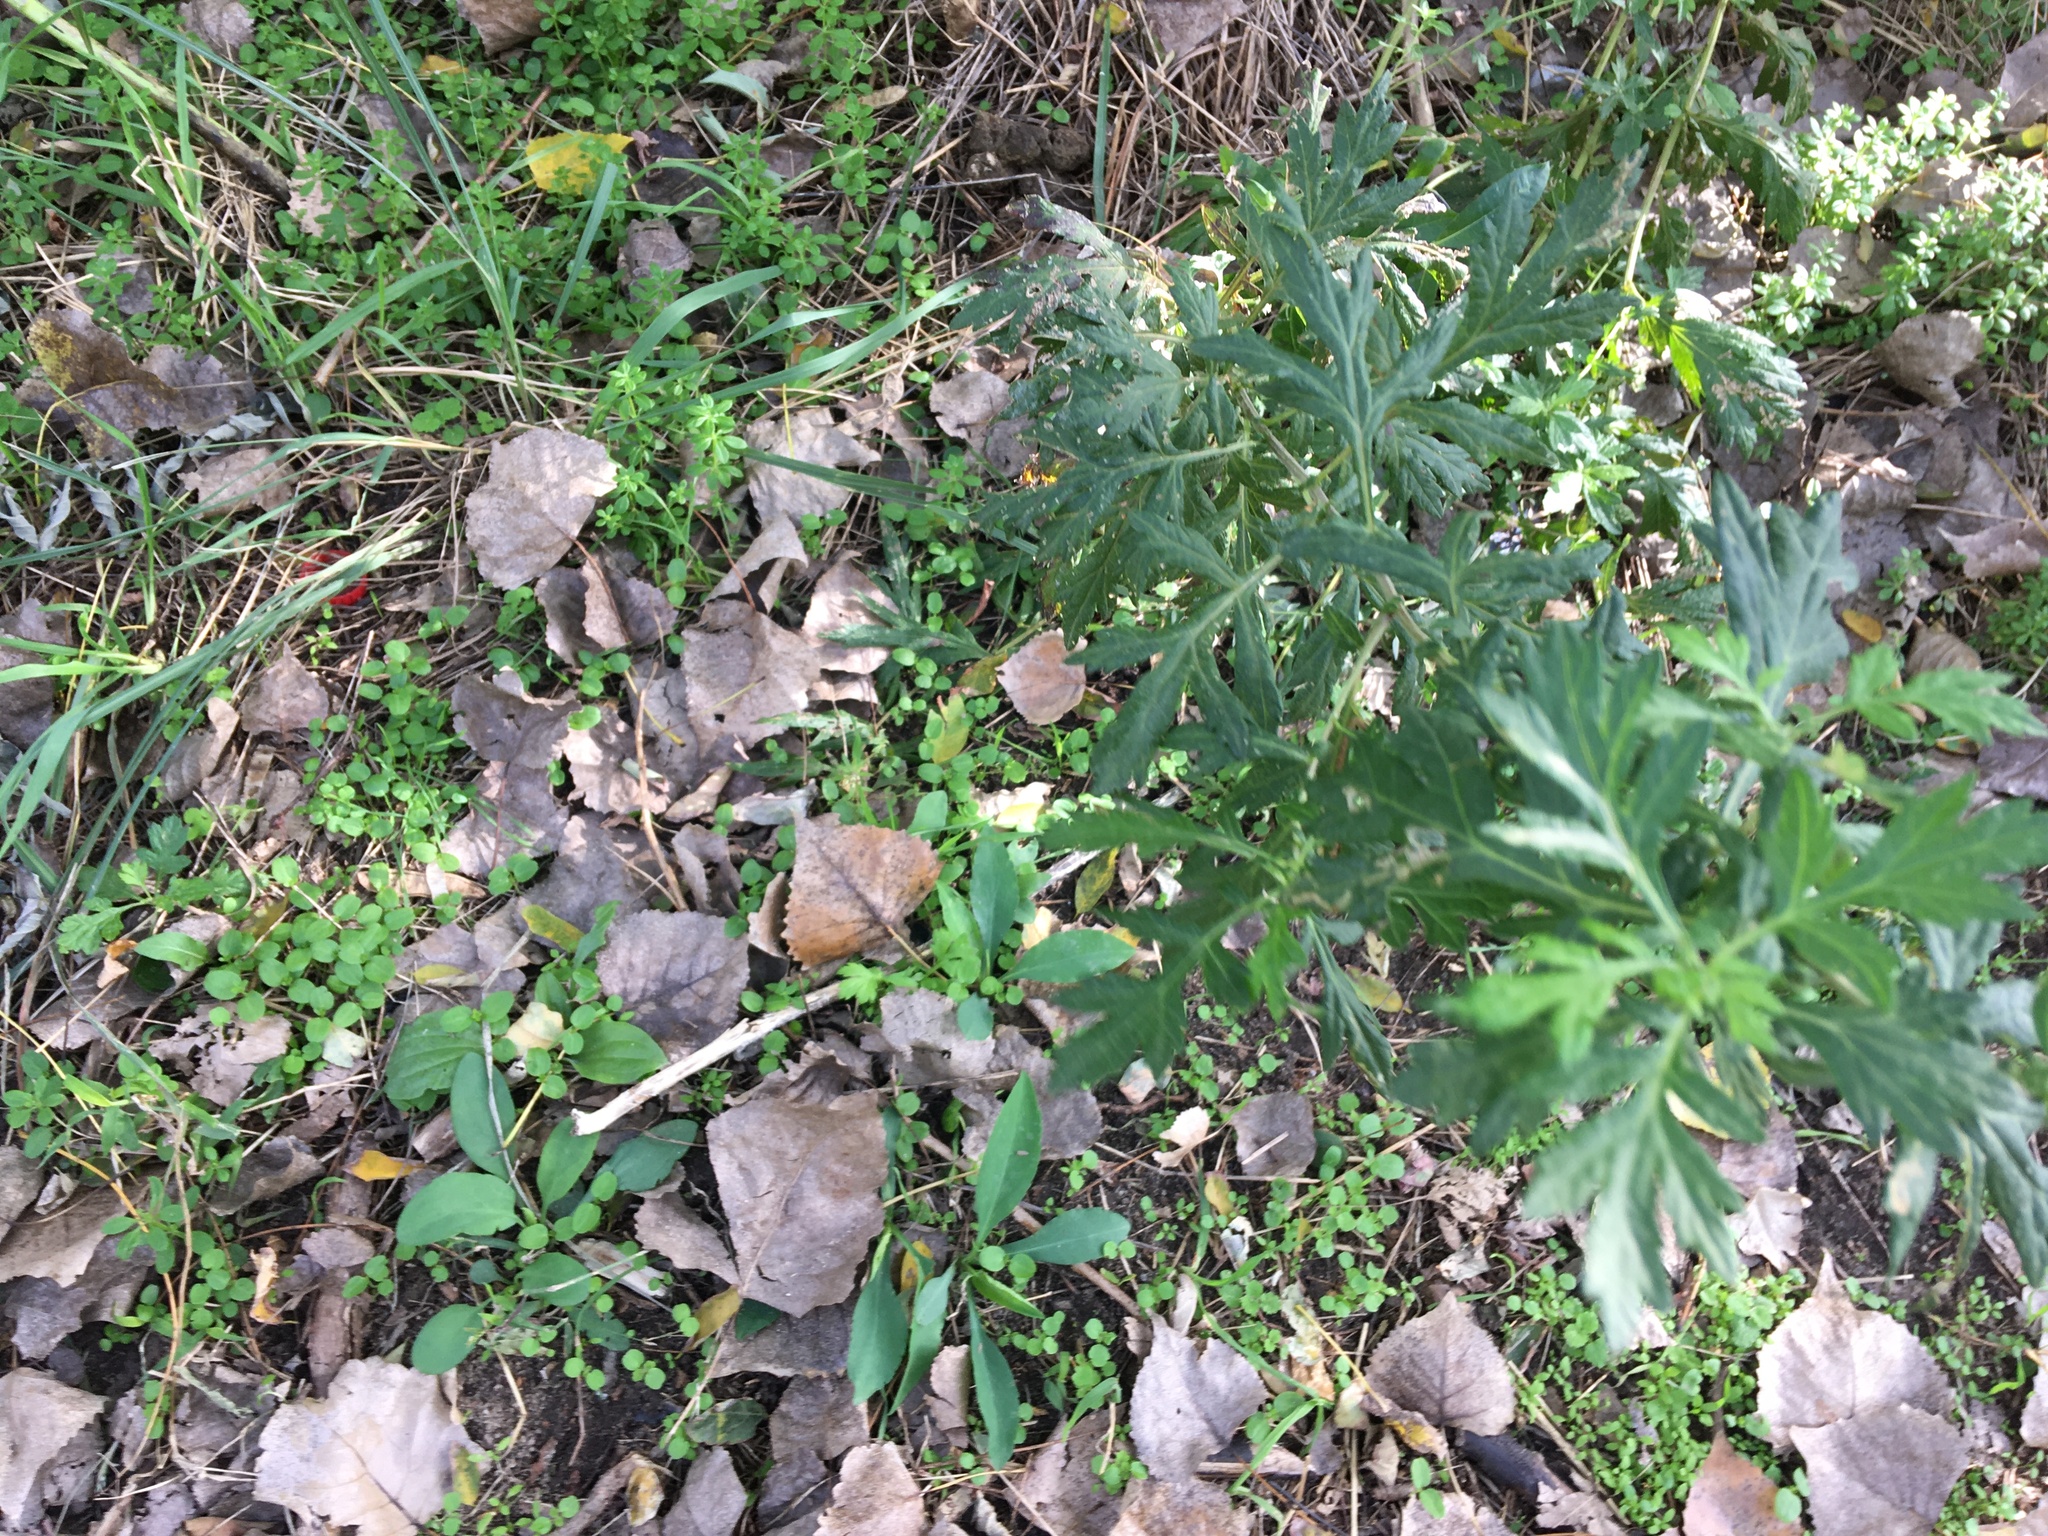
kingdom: Plantae
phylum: Tracheophyta
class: Magnoliopsida
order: Asterales
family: Asteraceae
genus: Artemisia
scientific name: Artemisia vulgaris
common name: Mugwort
